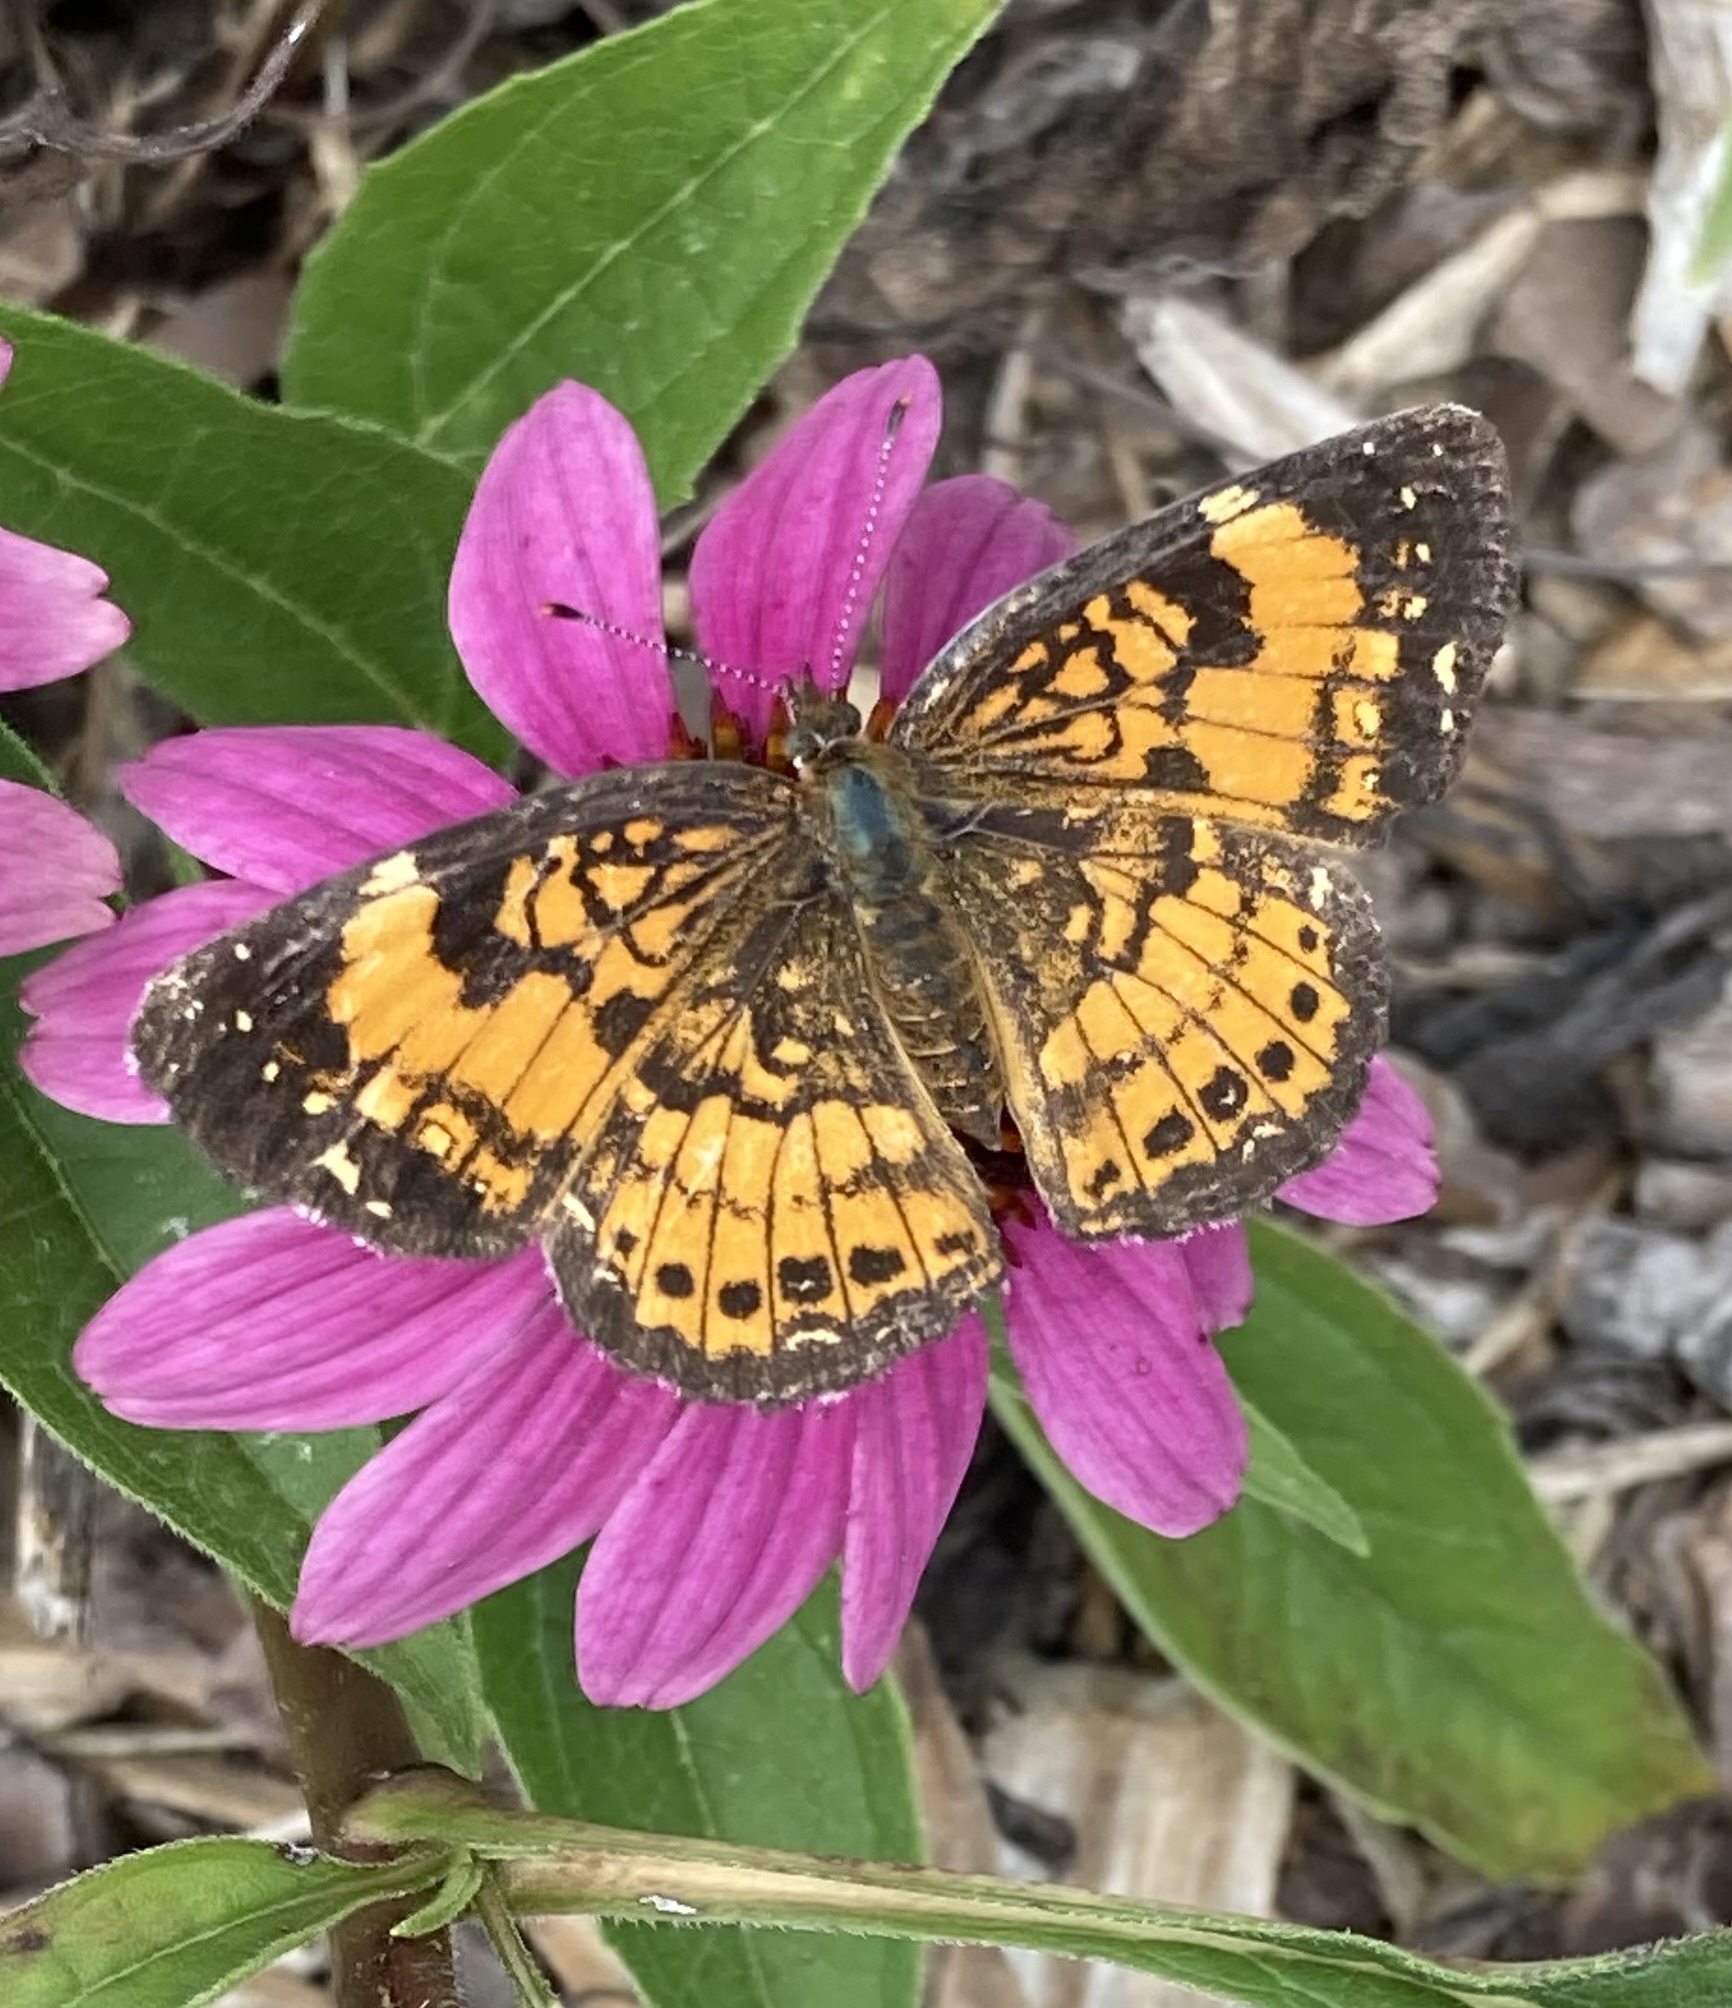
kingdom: Animalia
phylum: Arthropoda
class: Insecta
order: Lepidoptera
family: Nymphalidae
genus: Chlosyne
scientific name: Chlosyne nycteis
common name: Silvery checkerspot
